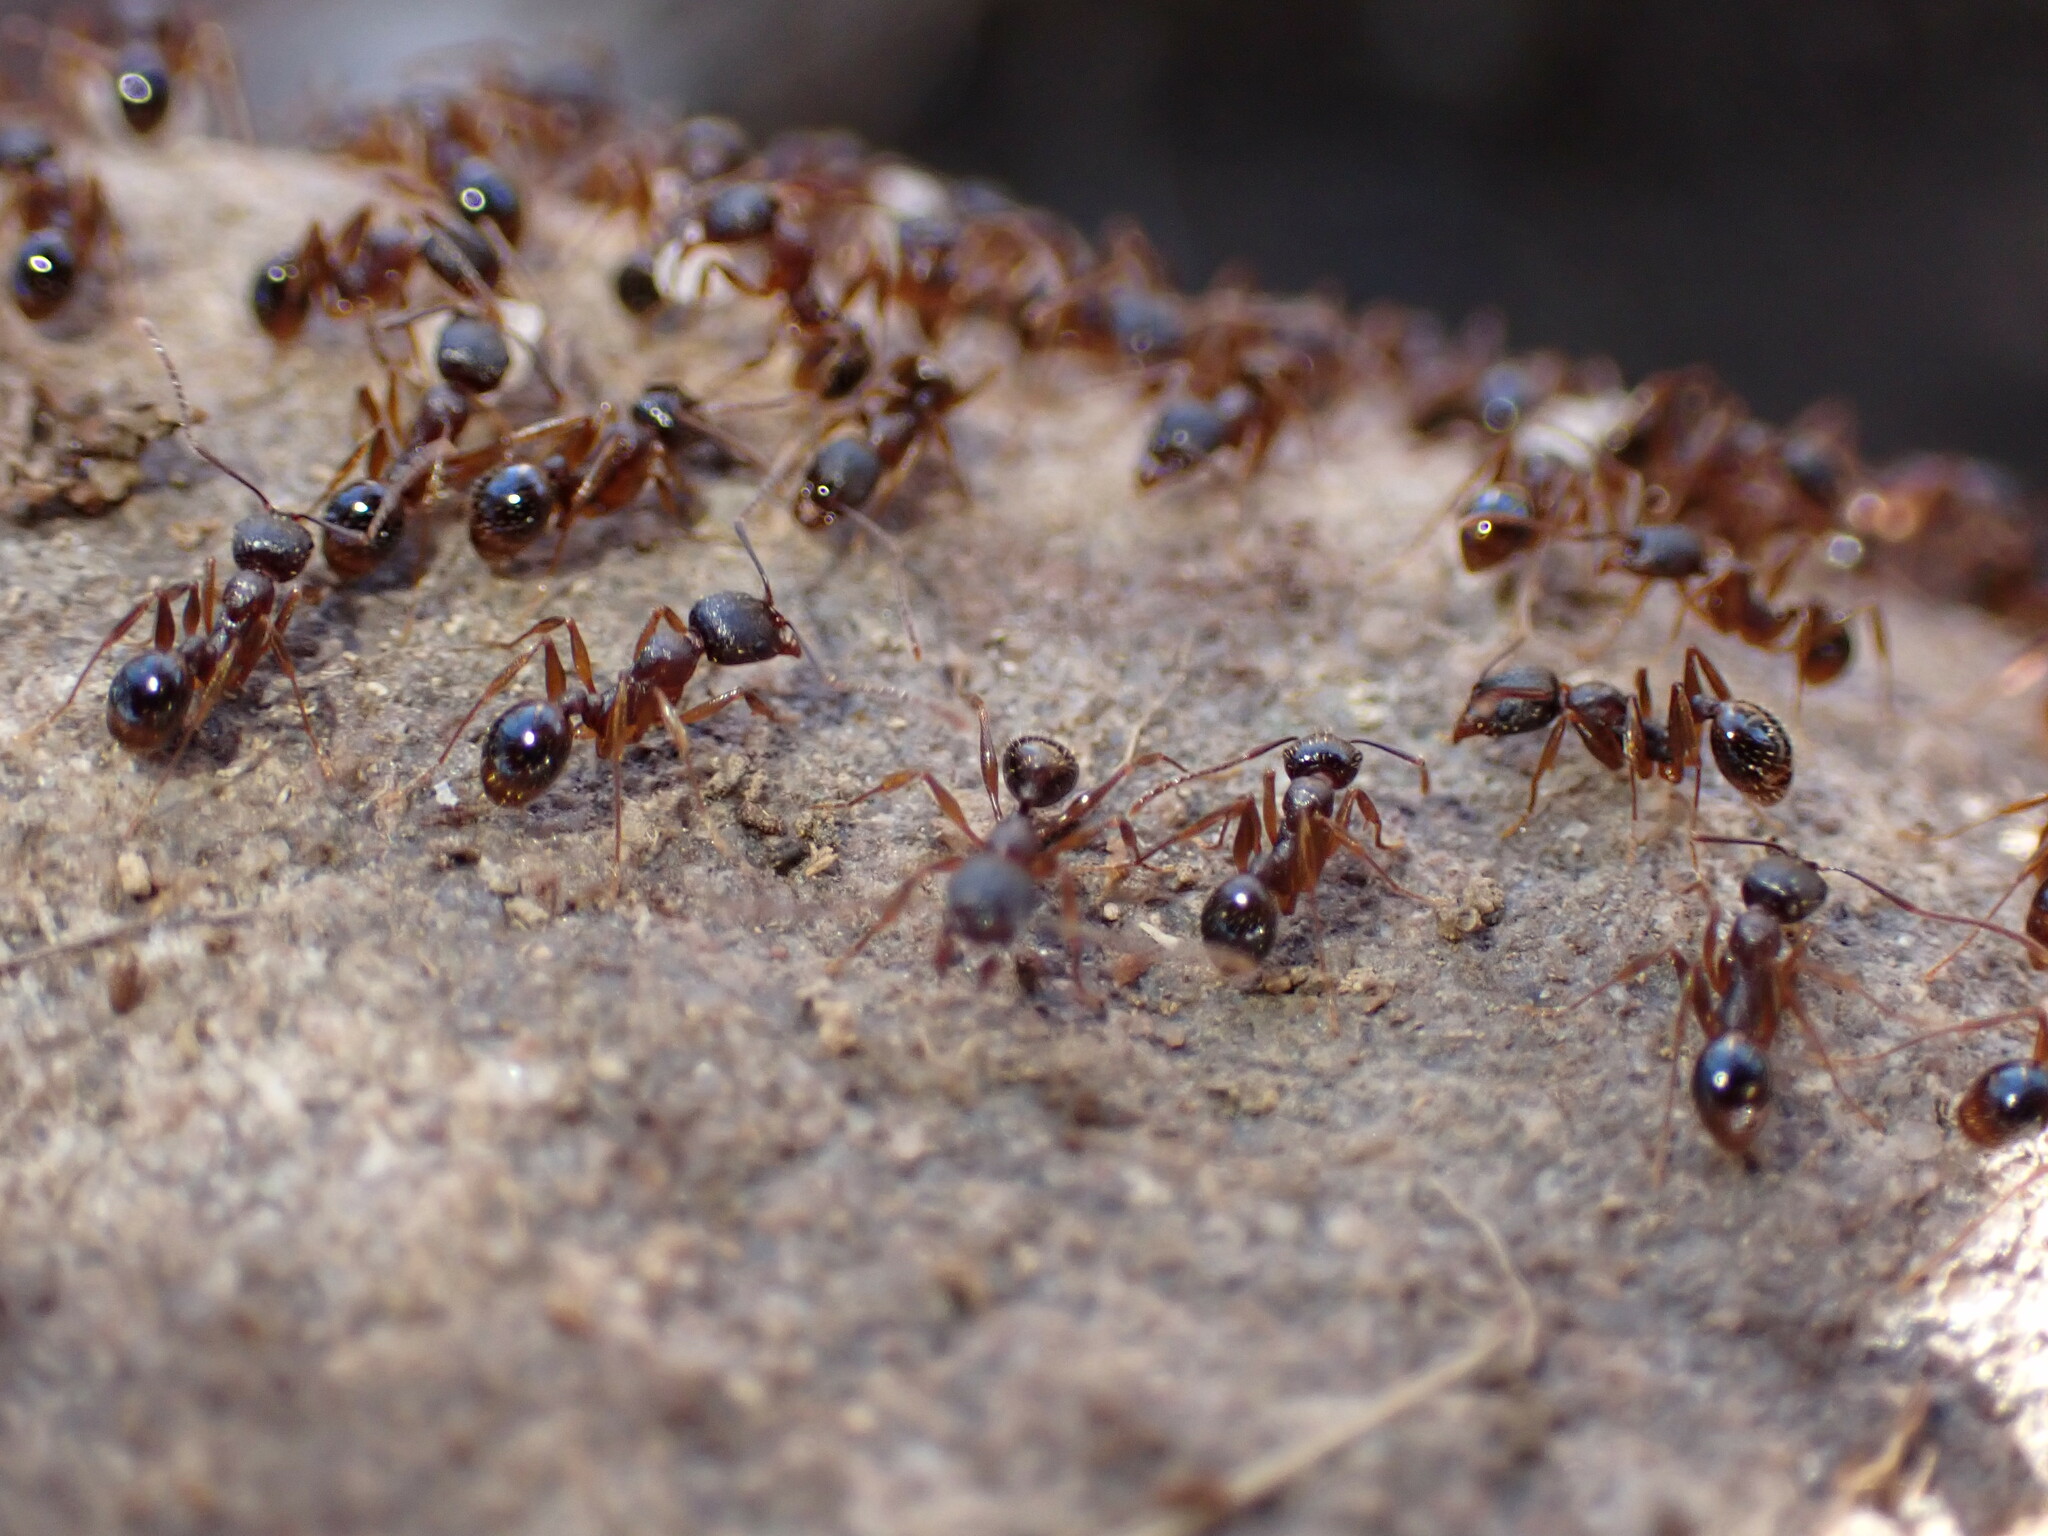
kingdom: Animalia
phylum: Arthropoda
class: Insecta
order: Hymenoptera
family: Formicidae
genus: Aphaenogaster
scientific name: Aphaenogaster rudis
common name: Winnow ant
